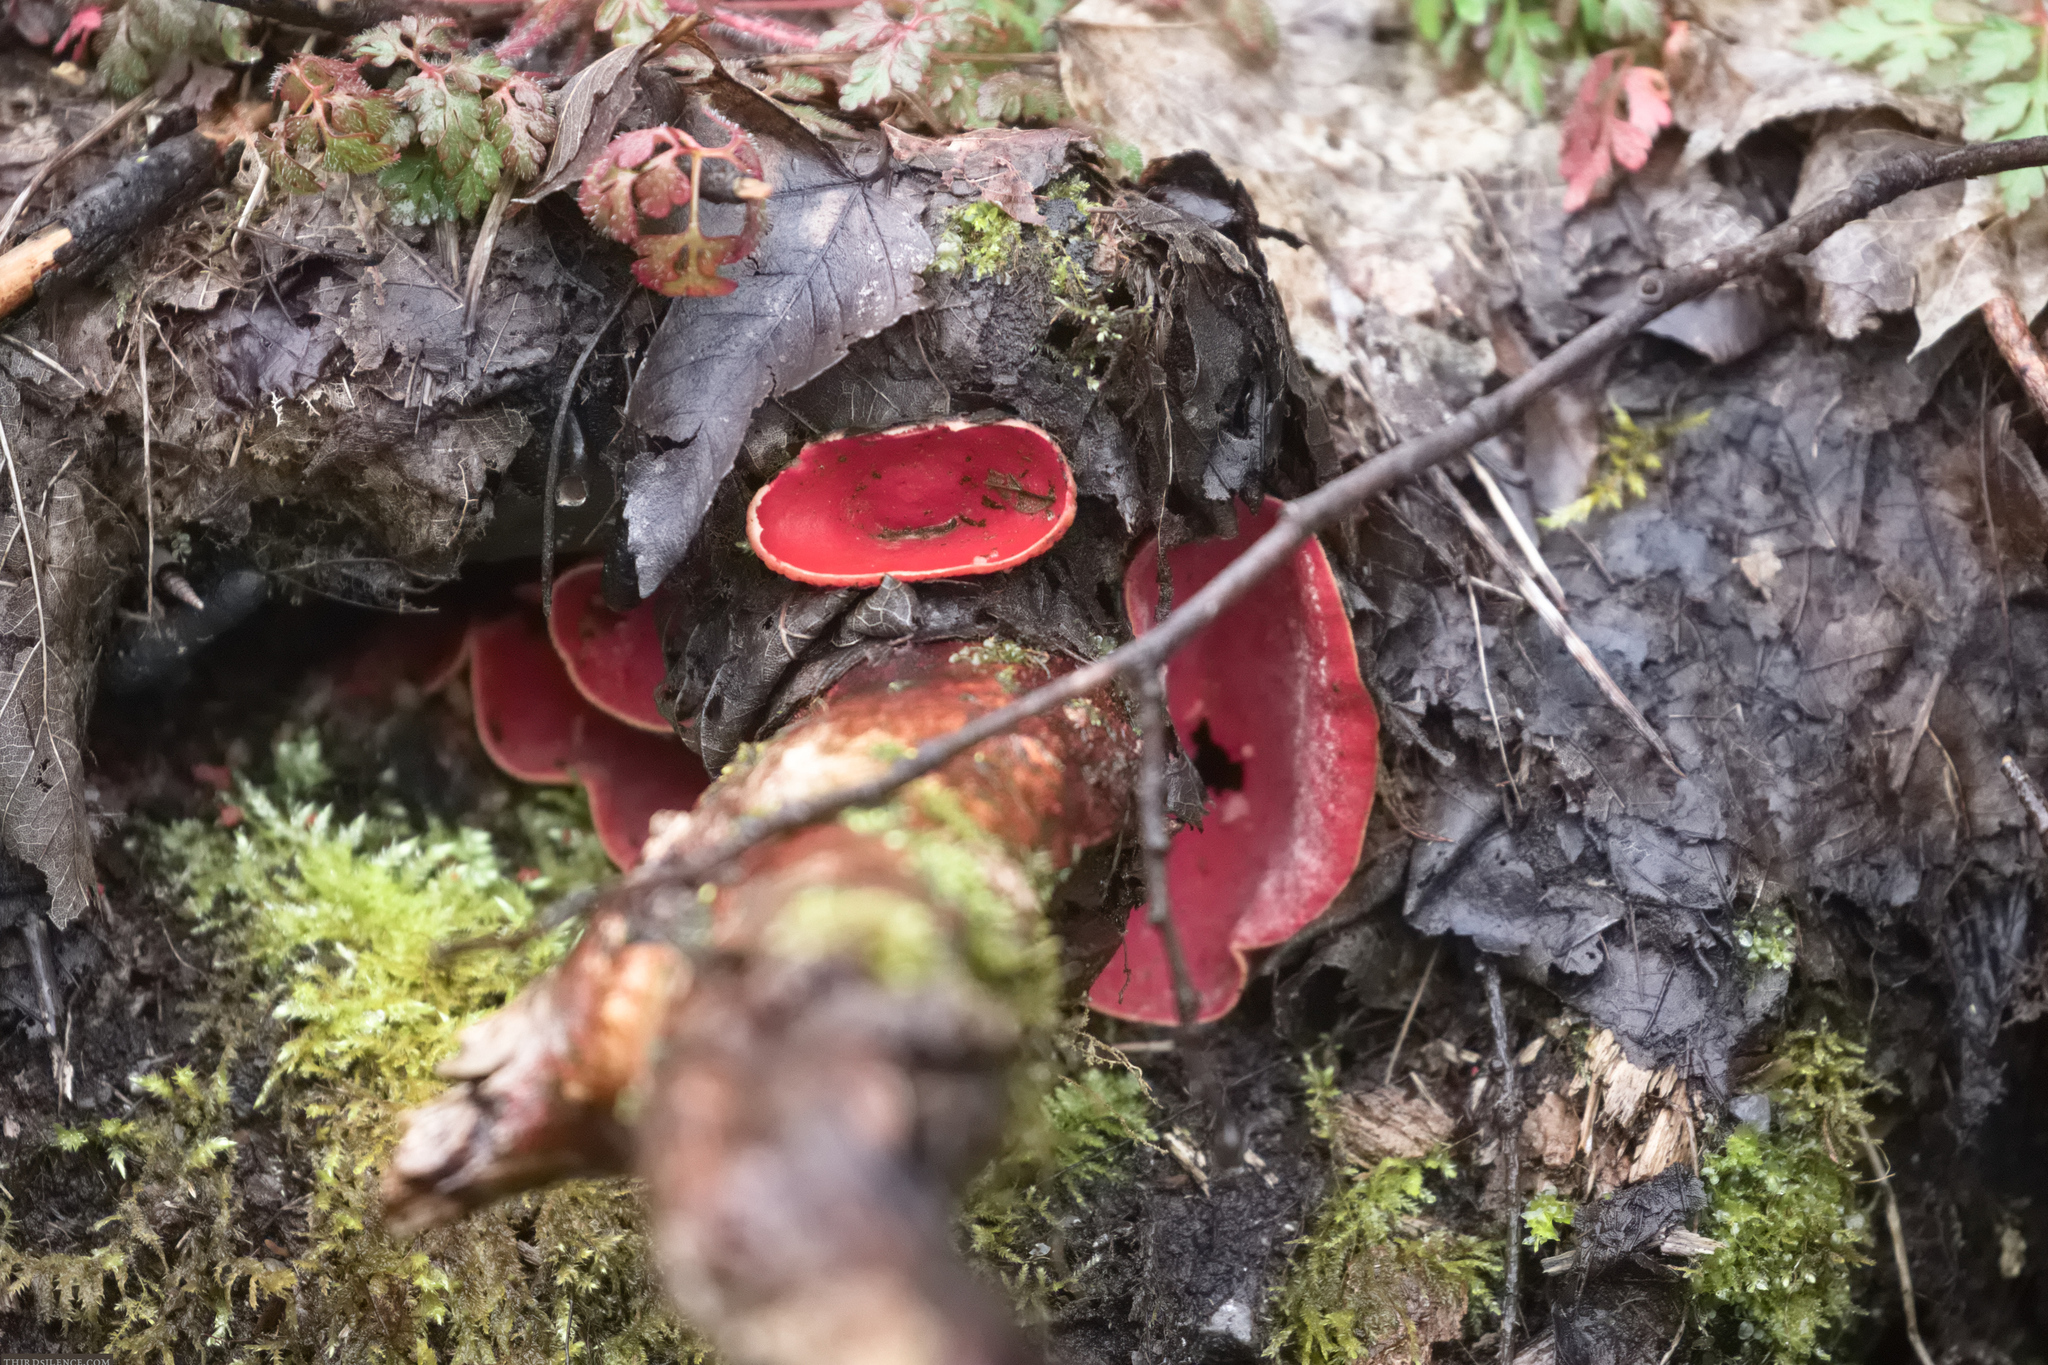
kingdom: Fungi
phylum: Ascomycota
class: Pezizomycetes
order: Pezizales
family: Sarcoscyphaceae
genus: Sarcoscypha
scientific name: Sarcoscypha
